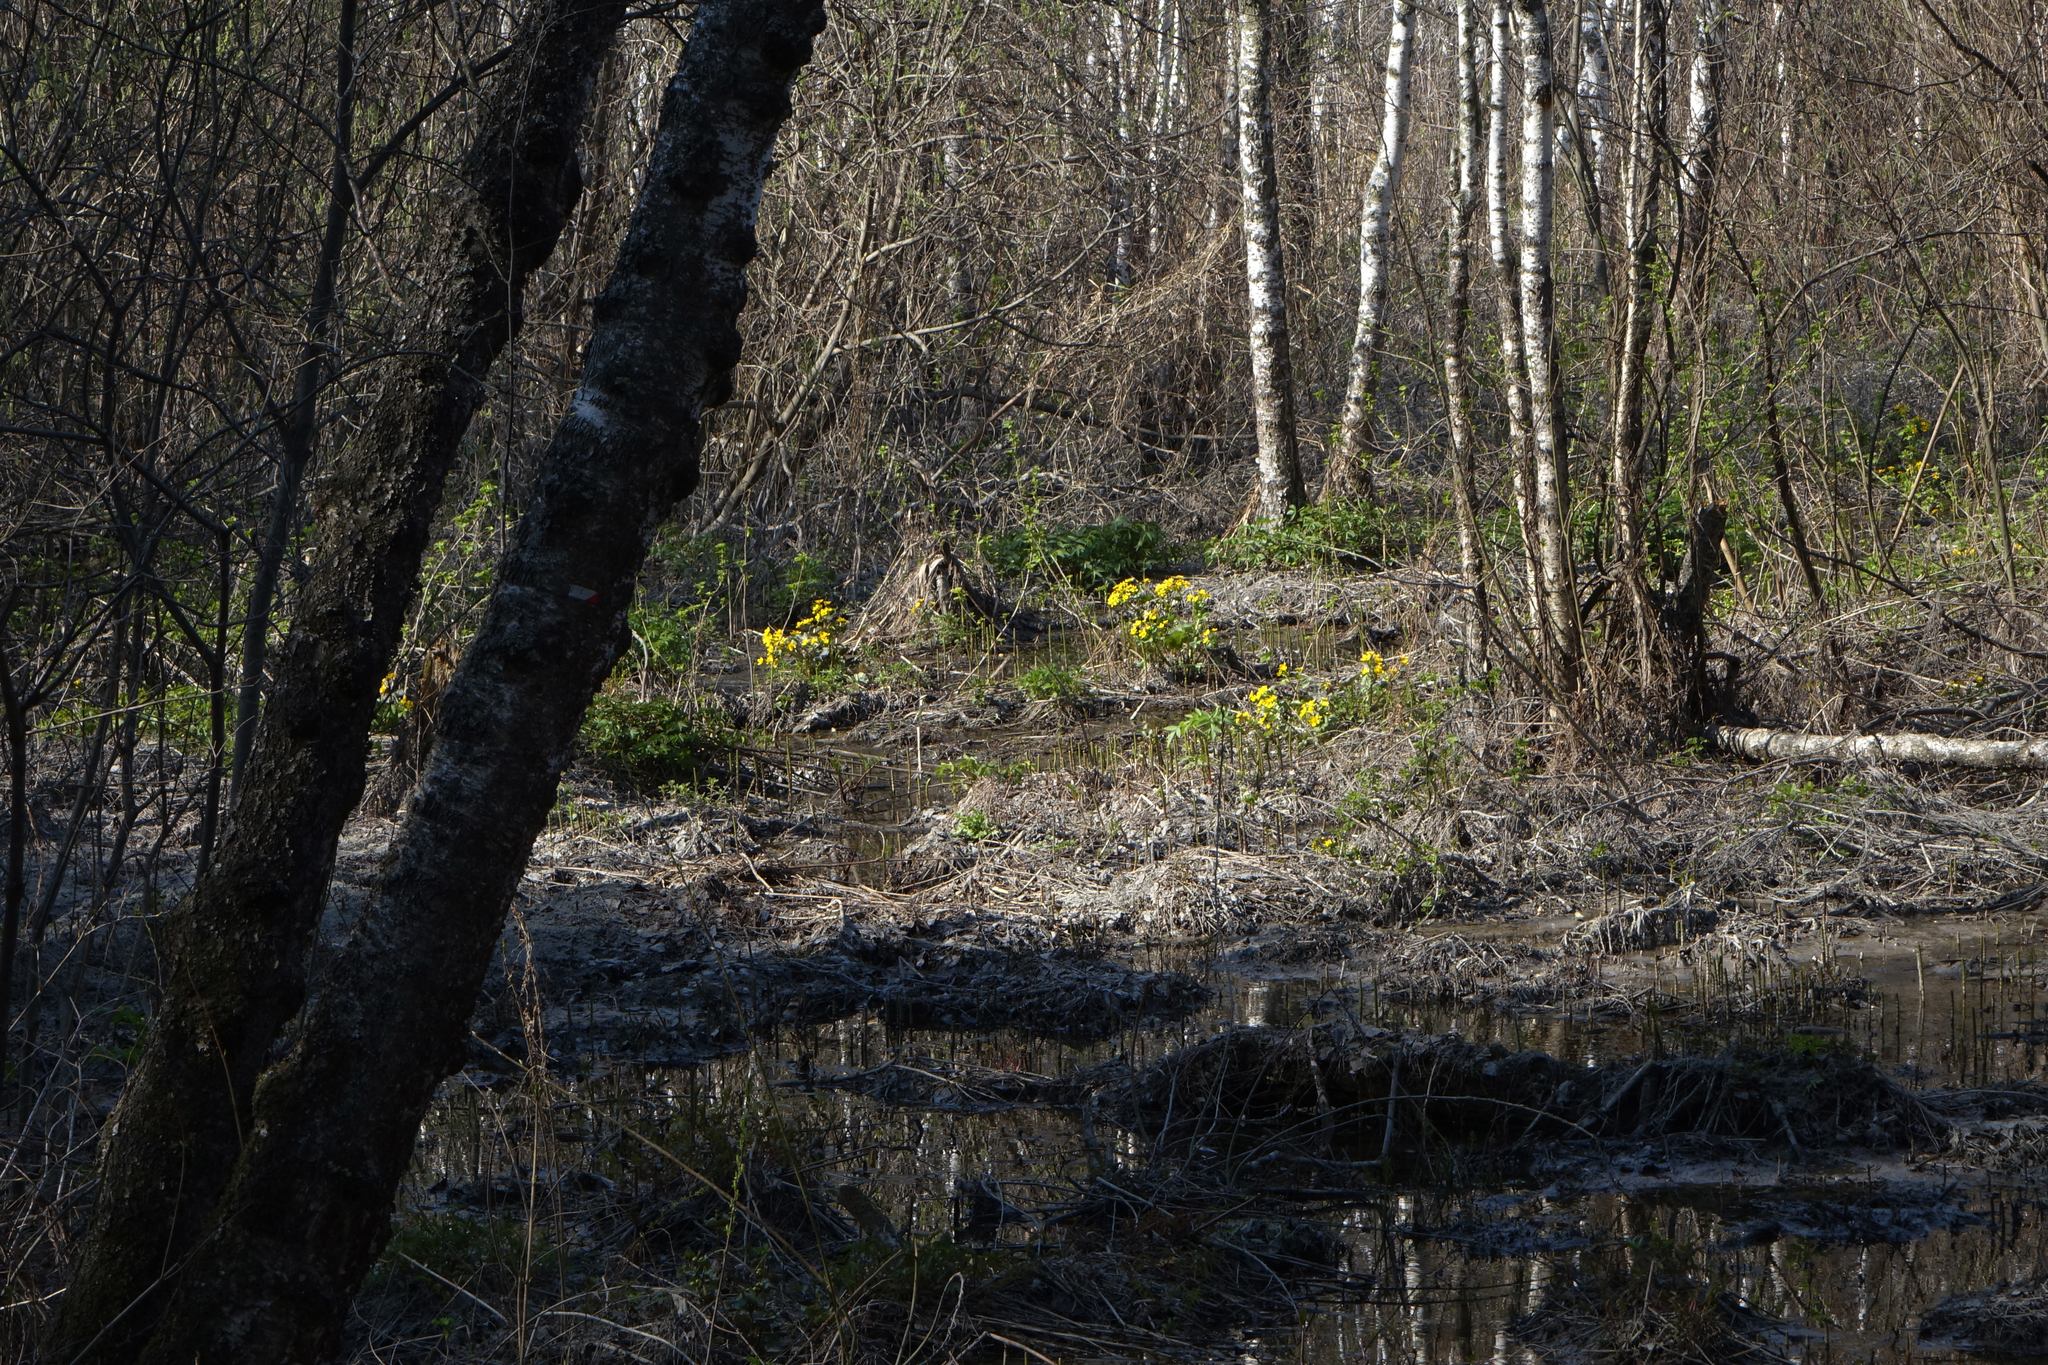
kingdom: Plantae
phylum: Tracheophyta
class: Magnoliopsida
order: Ranunculales
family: Ranunculaceae
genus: Caltha
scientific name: Caltha palustris
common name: Marsh marigold
